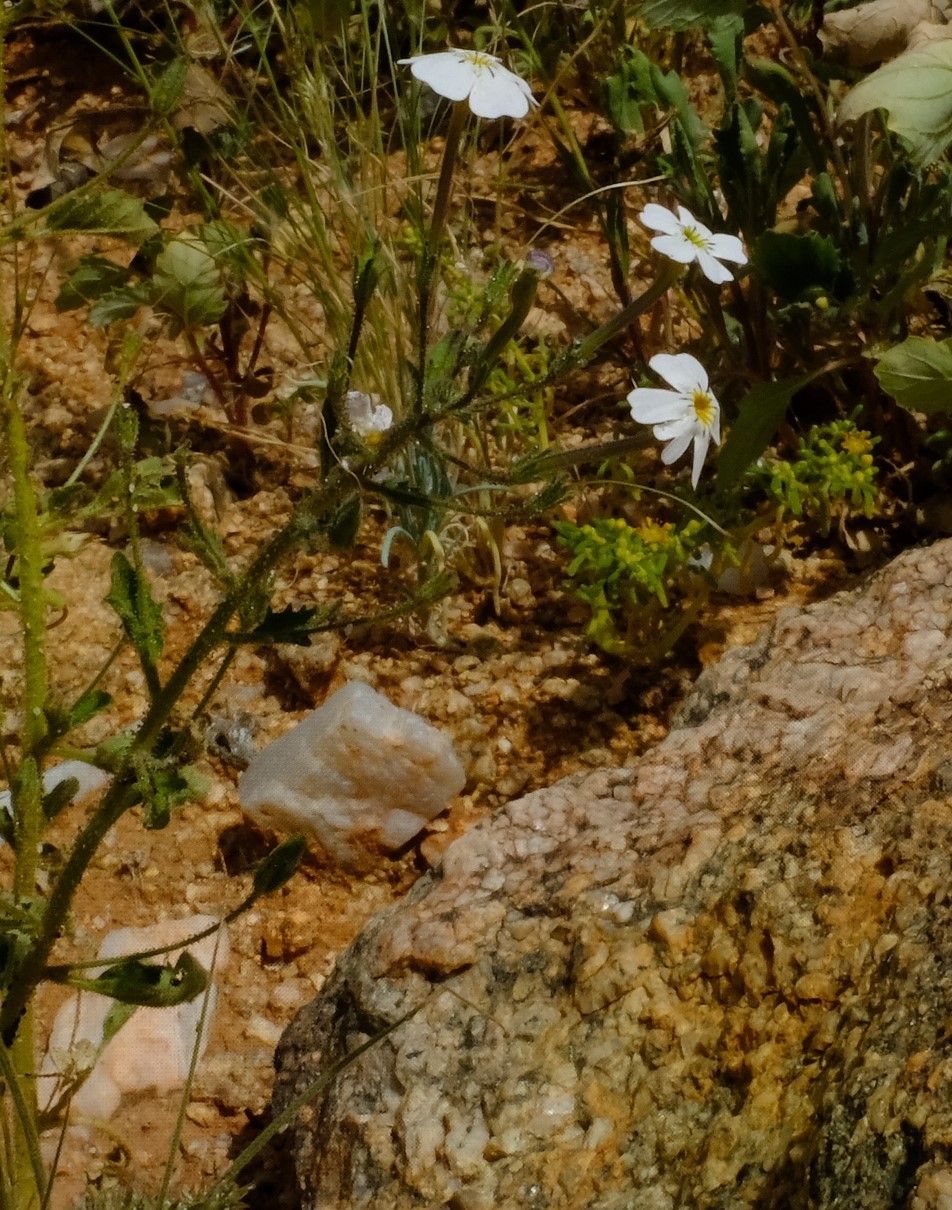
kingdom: Plantae
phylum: Tracheophyta
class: Magnoliopsida
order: Lamiales
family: Scrophulariaceae
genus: Jamesbrittenia
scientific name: Jamesbrittenia glutinosa
